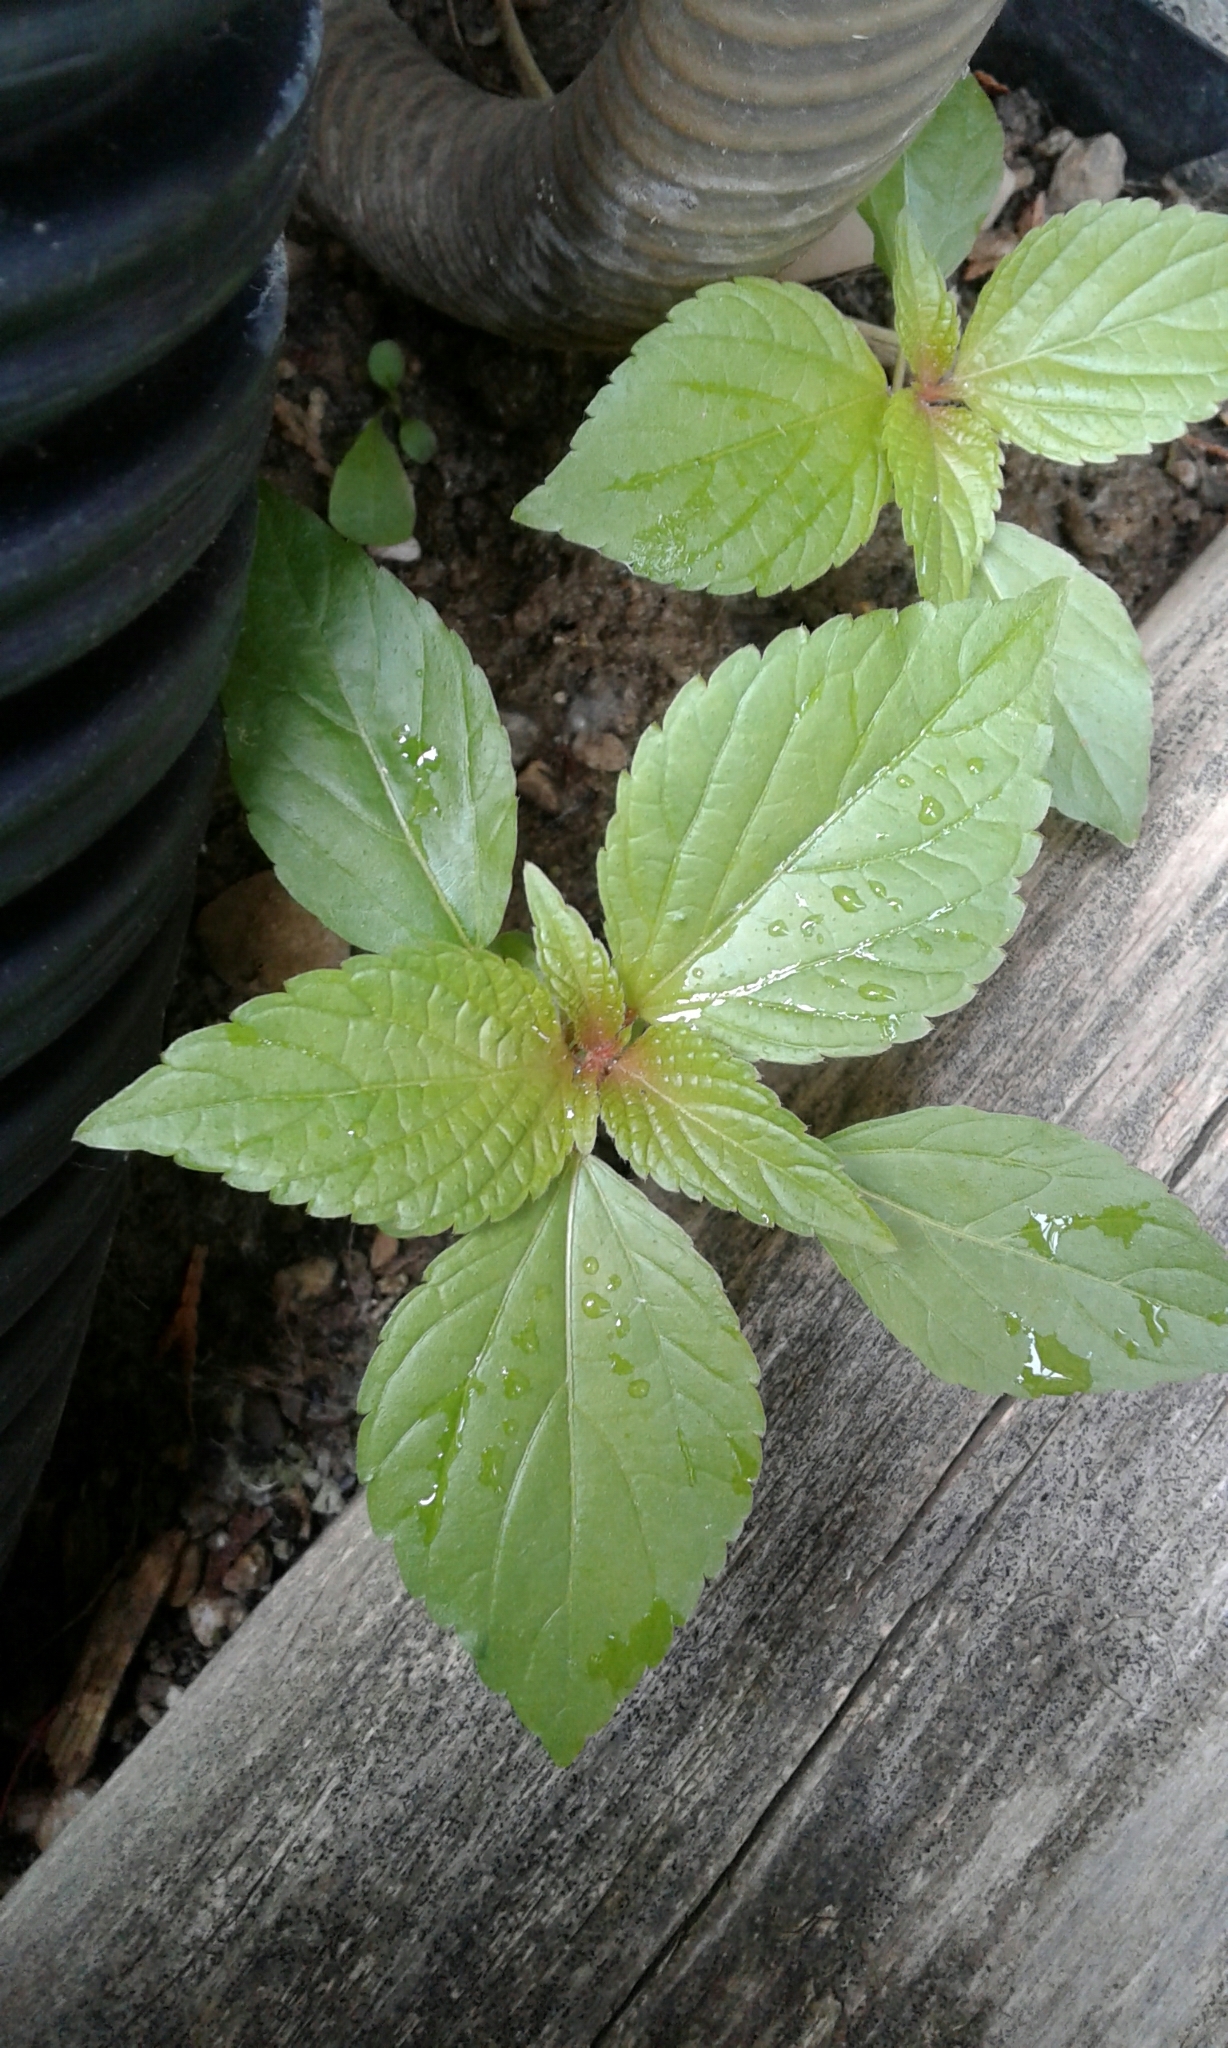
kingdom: Plantae
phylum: Tracheophyta
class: Magnoliopsida
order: Malpighiales
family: Euphorbiaceae
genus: Acalypha
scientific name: Acalypha rhomboidea
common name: Rhombic copperleaf
